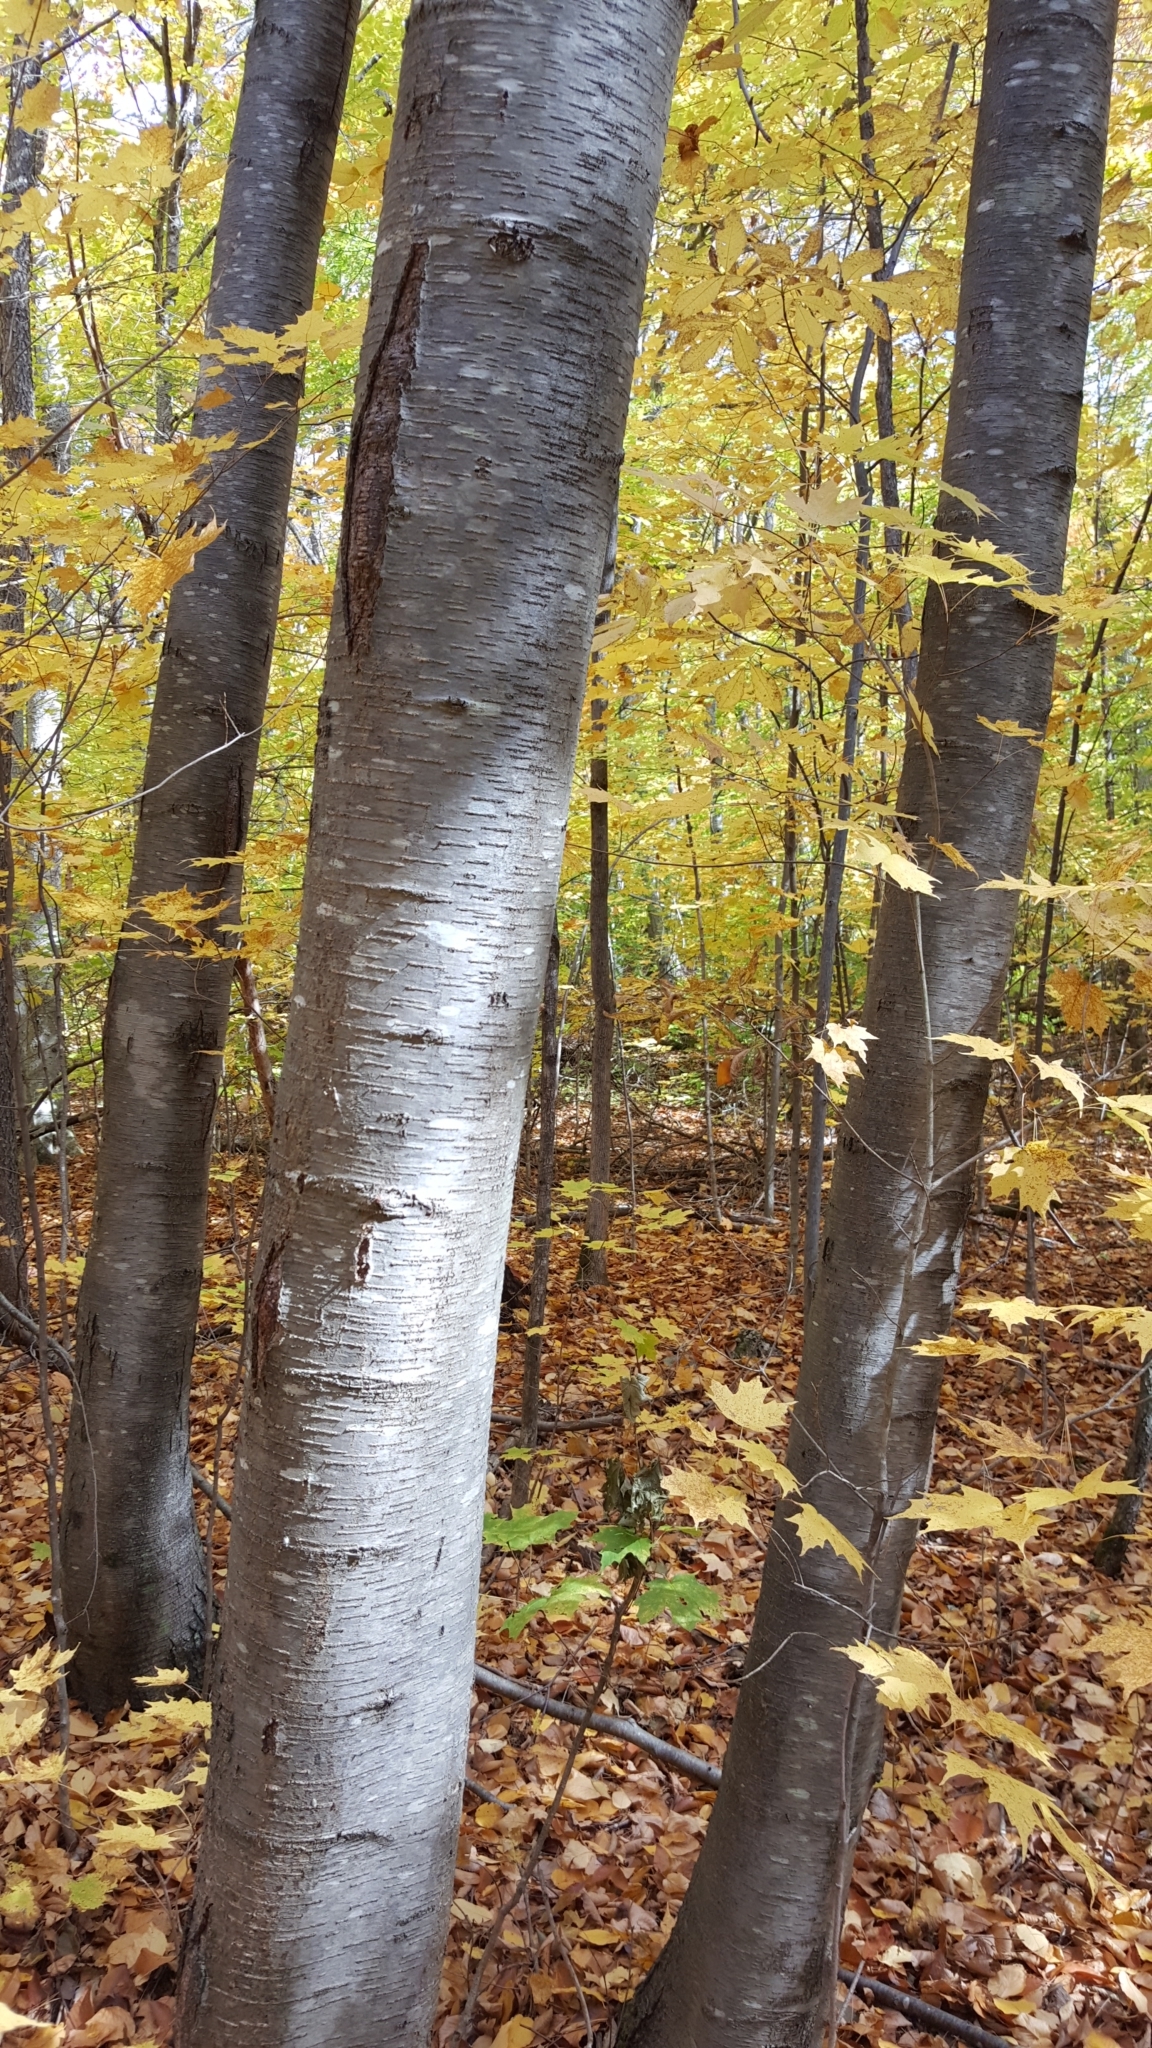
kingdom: Plantae
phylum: Tracheophyta
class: Magnoliopsida
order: Fagales
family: Betulaceae
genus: Betula
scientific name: Betula lenta
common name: Black birch
